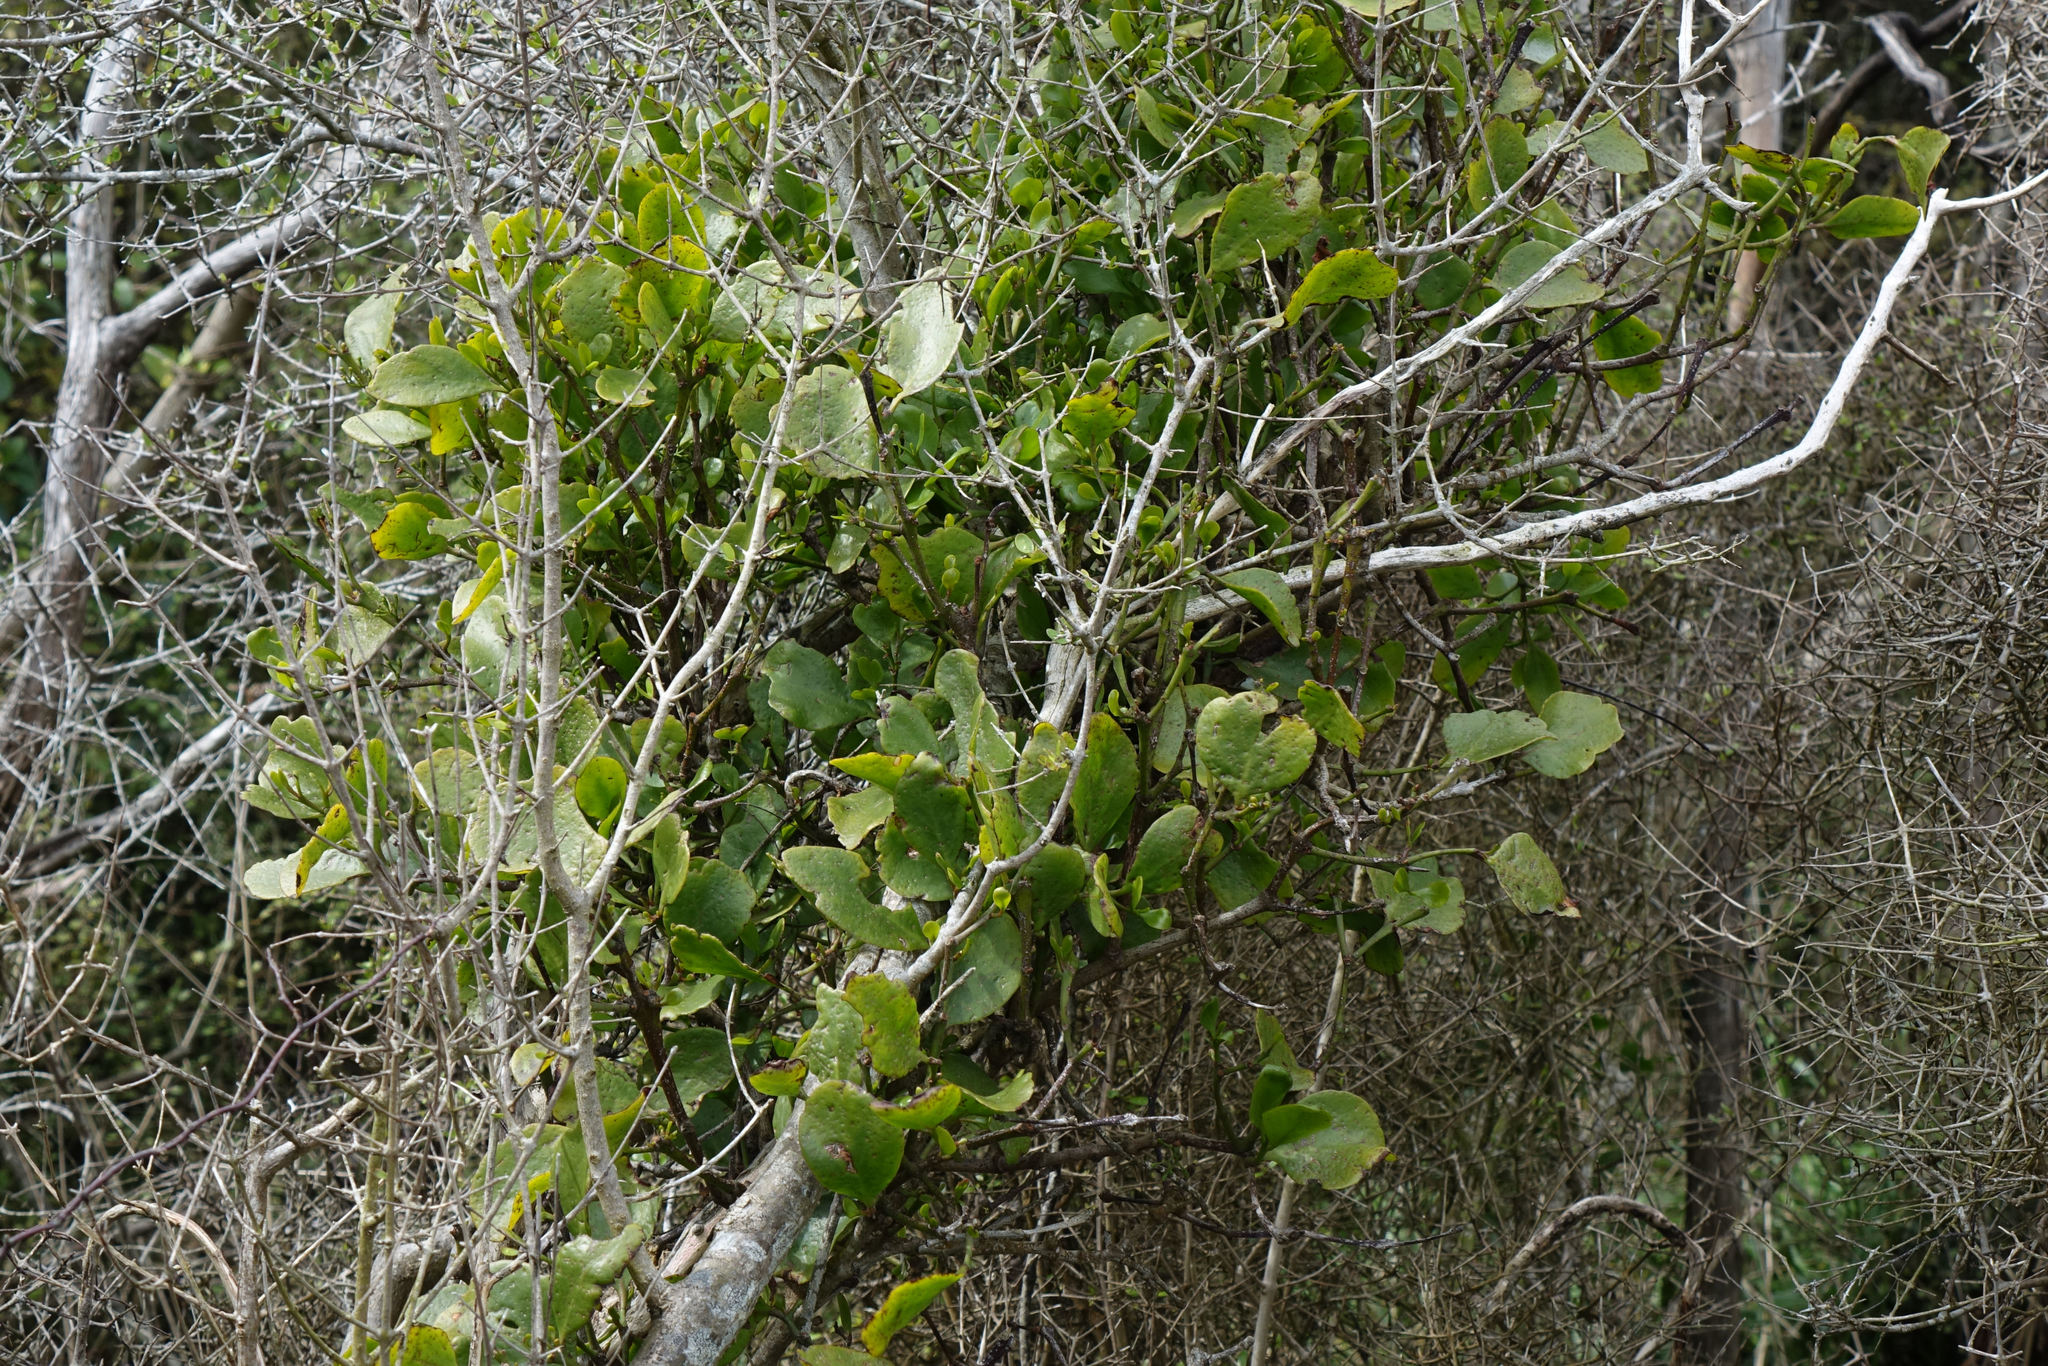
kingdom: Plantae
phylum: Tracheophyta
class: Magnoliopsida
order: Santalales
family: Loranthaceae
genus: Ileostylus
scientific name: Ileostylus micranthus
